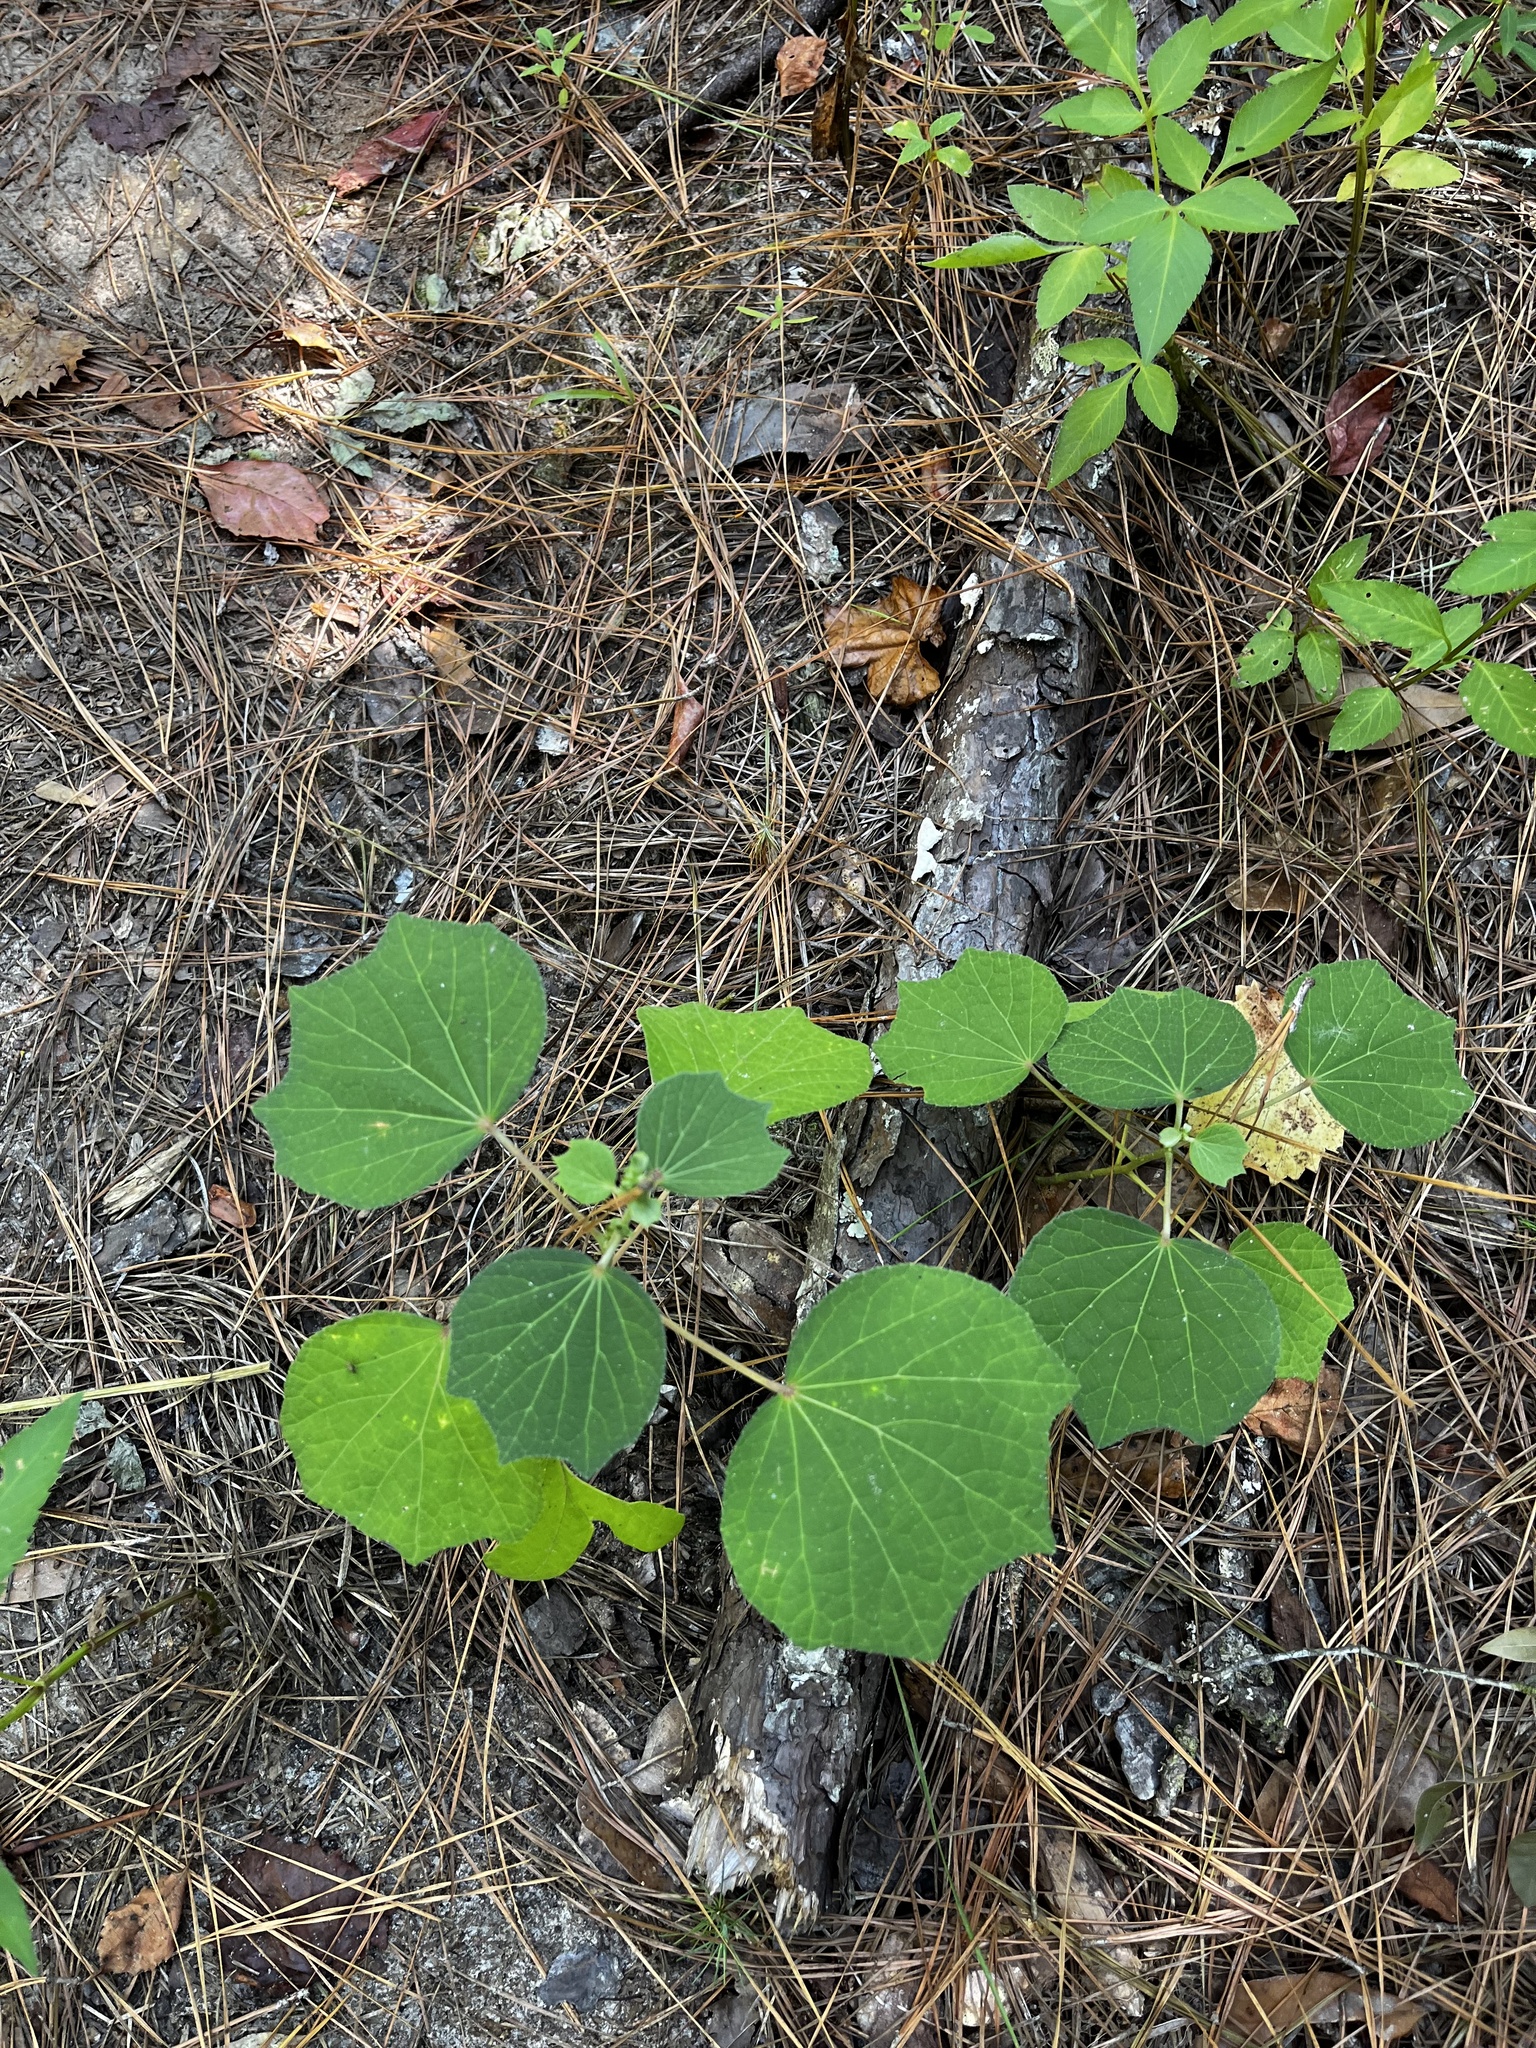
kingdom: Plantae
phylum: Tracheophyta
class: Magnoliopsida
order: Malvales
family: Malvaceae
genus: Urena
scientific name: Urena lobata
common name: Caesarweed
